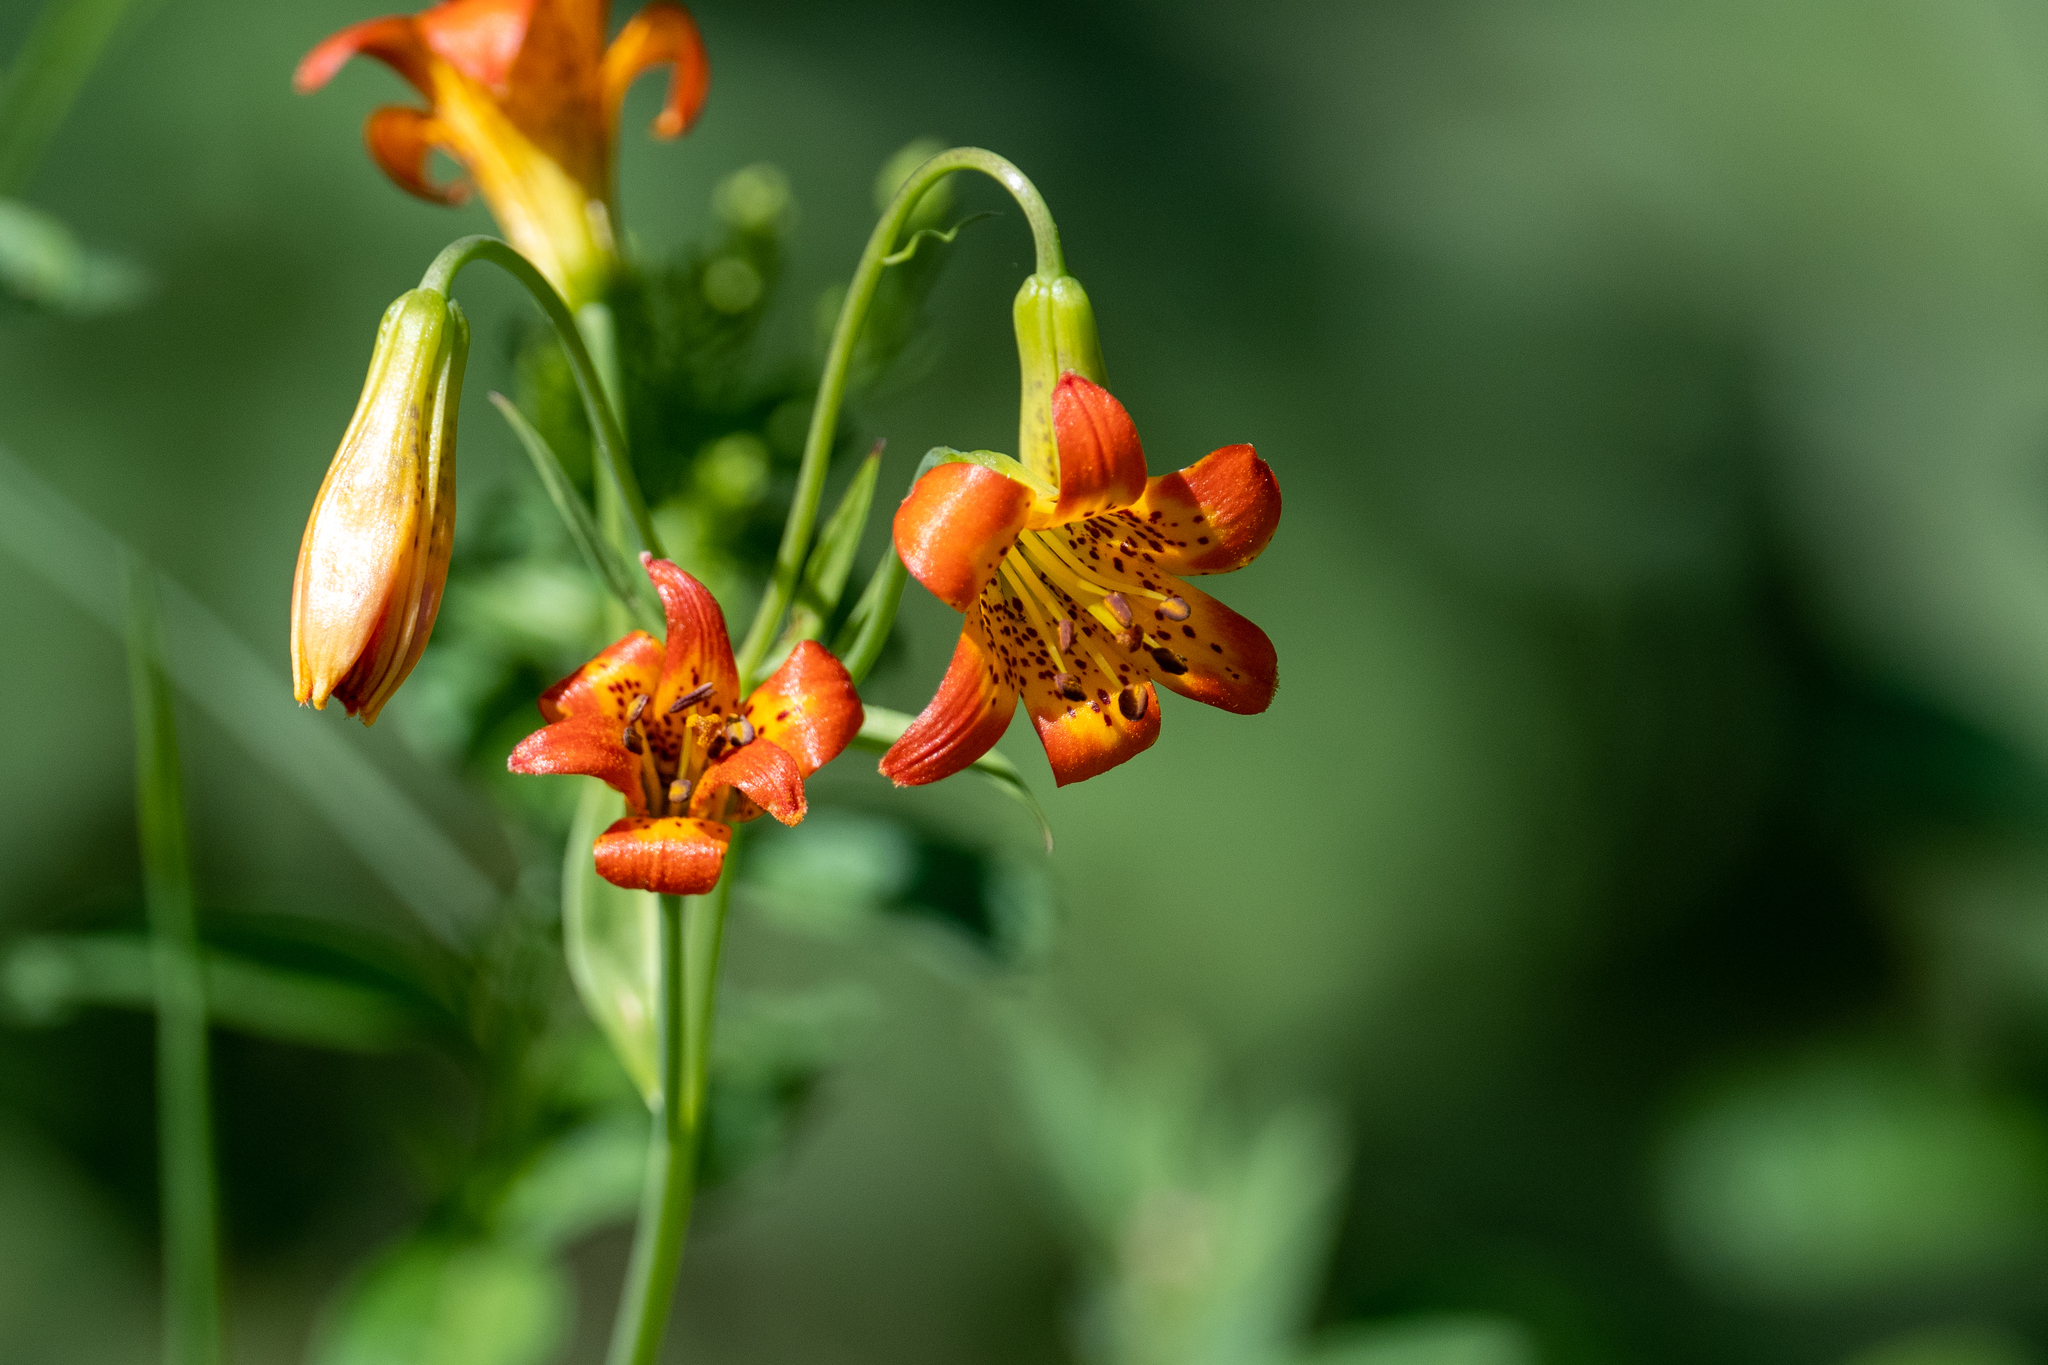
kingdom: Plantae
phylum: Tracheophyta
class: Liliopsida
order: Liliales
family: Liliaceae
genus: Lilium
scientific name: Lilium parvum
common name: Alpine lily
